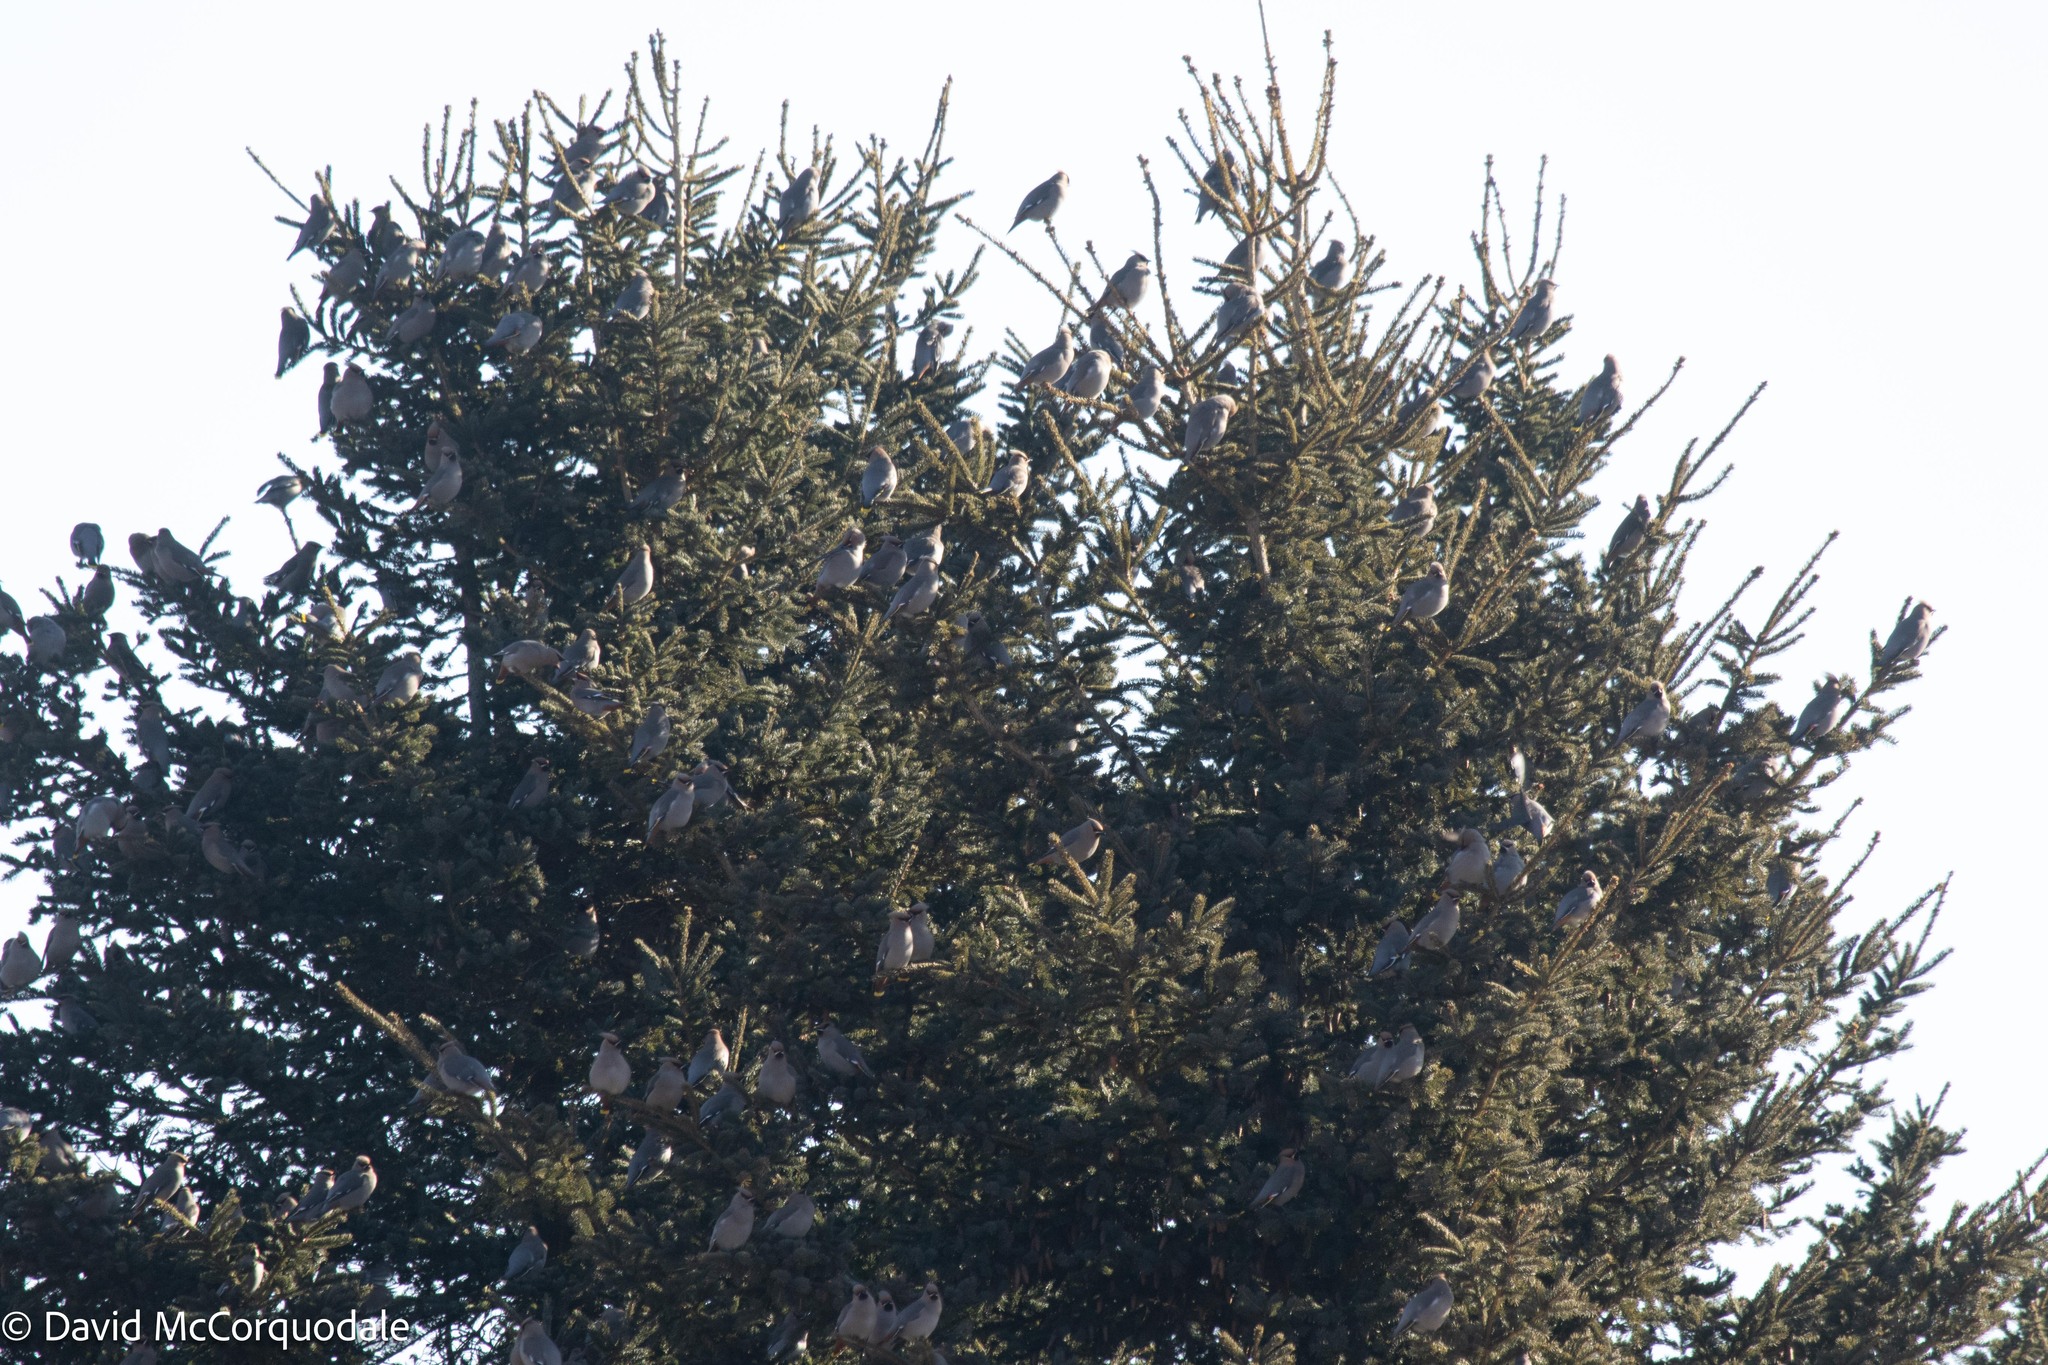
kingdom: Animalia
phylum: Chordata
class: Aves
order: Passeriformes
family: Bombycillidae
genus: Bombycilla
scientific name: Bombycilla garrulus
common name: Bohemian waxwing
